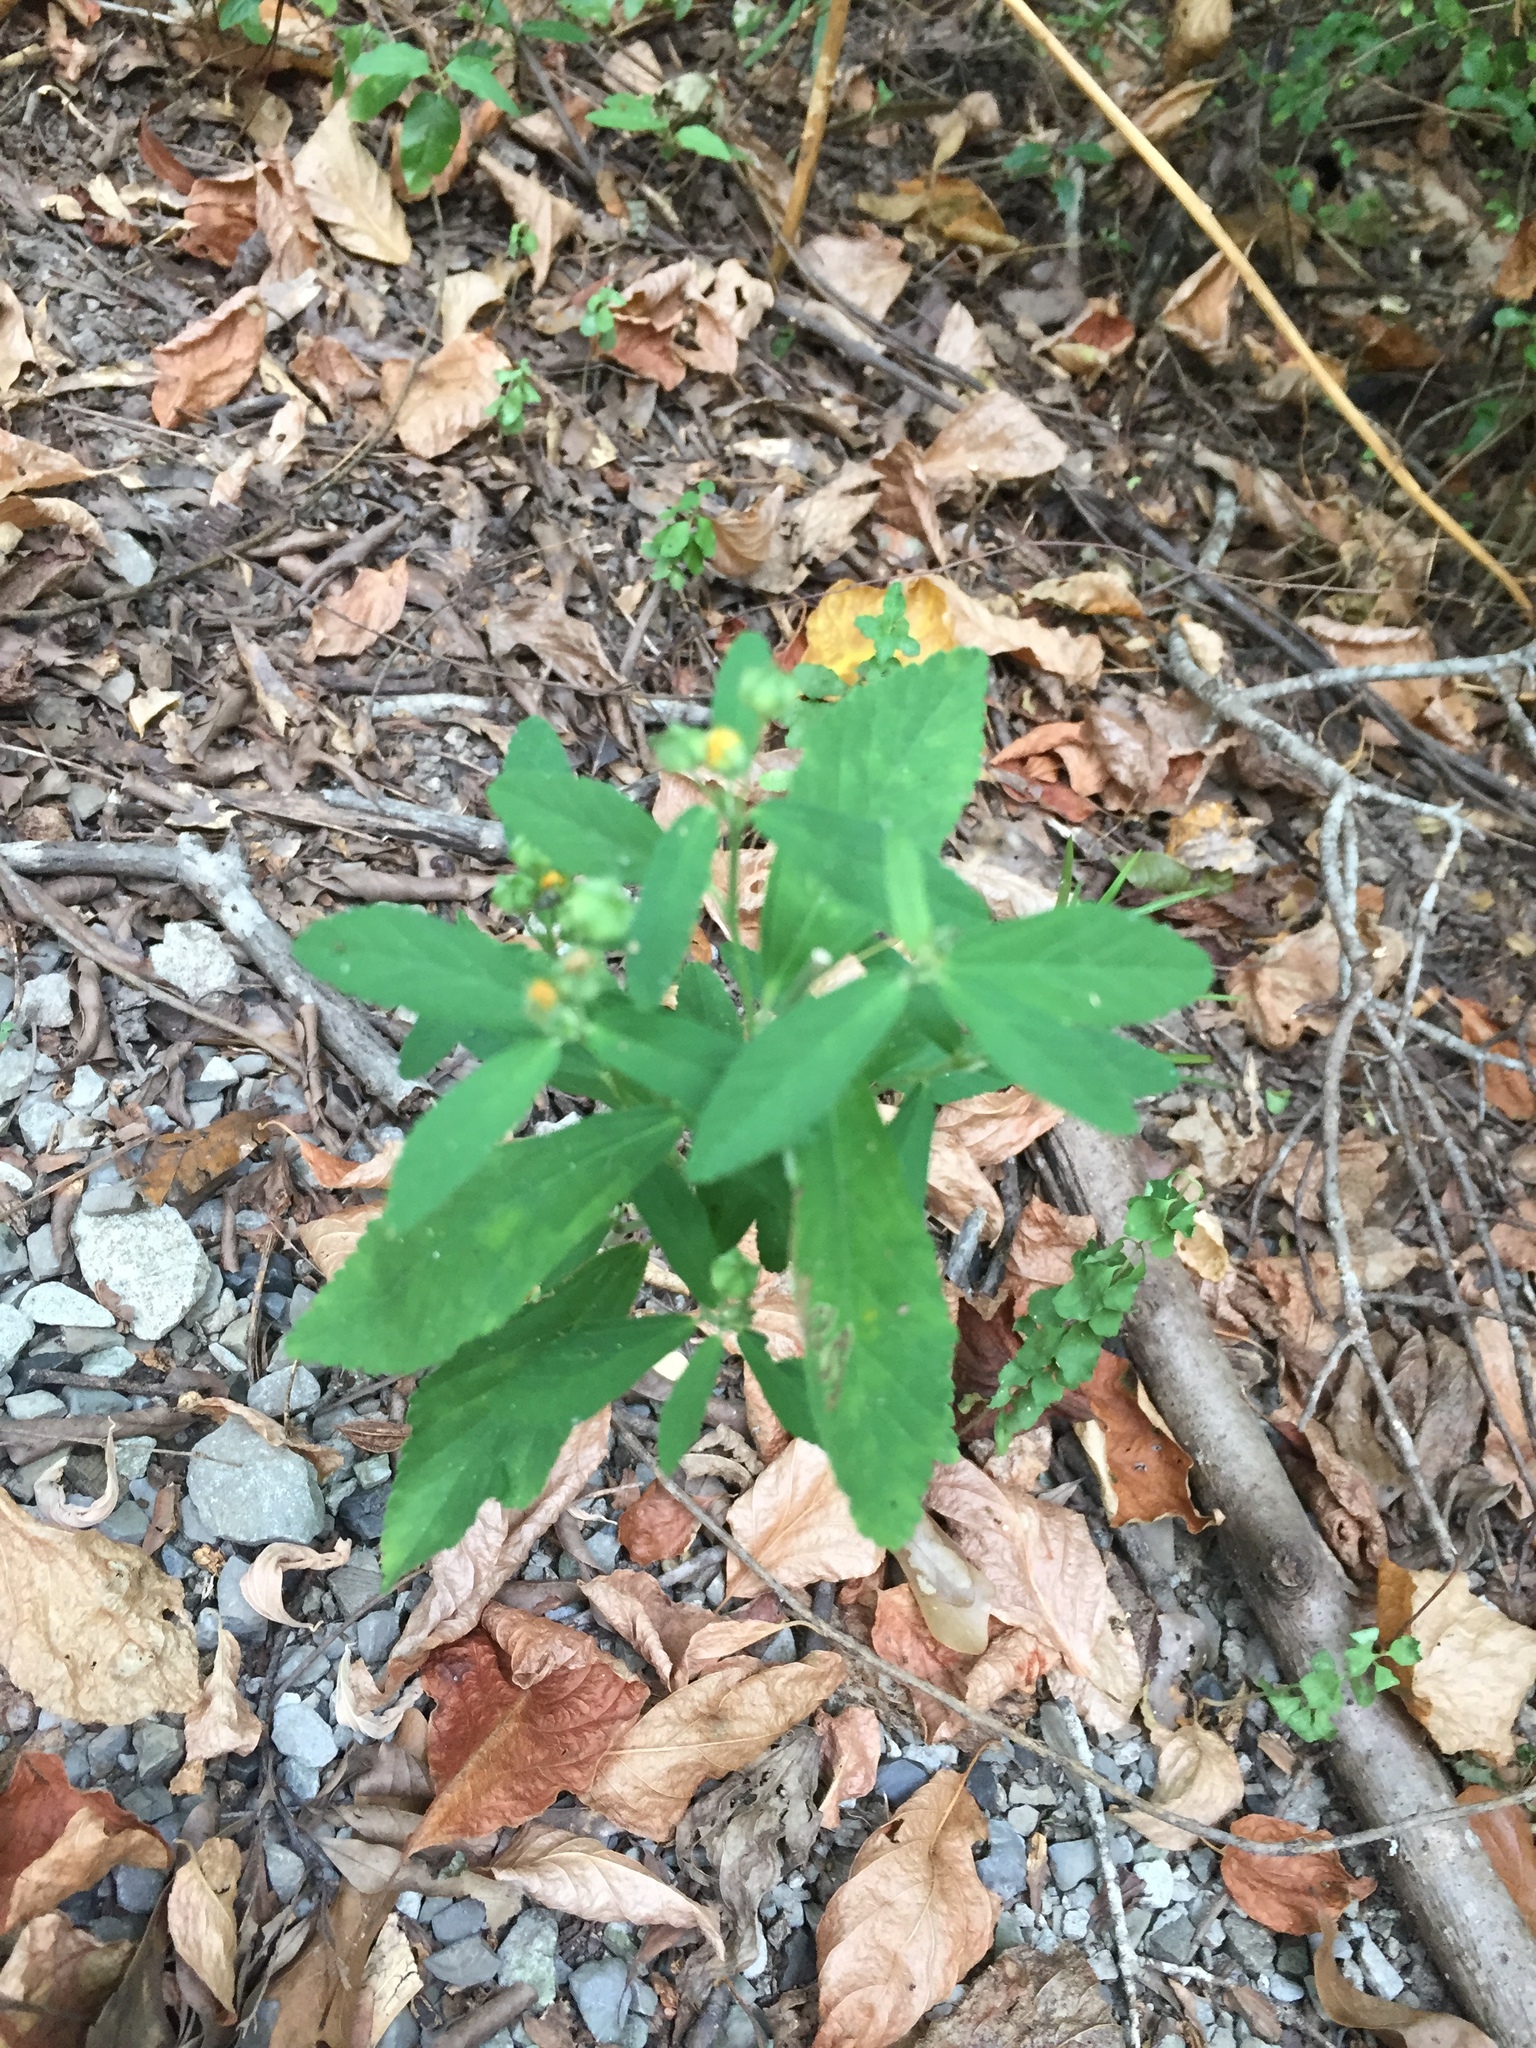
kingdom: Plantae
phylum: Tracheophyta
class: Magnoliopsida
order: Malvales
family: Malvaceae
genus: Sida
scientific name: Sida rhombifolia
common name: Queensland-hemp
